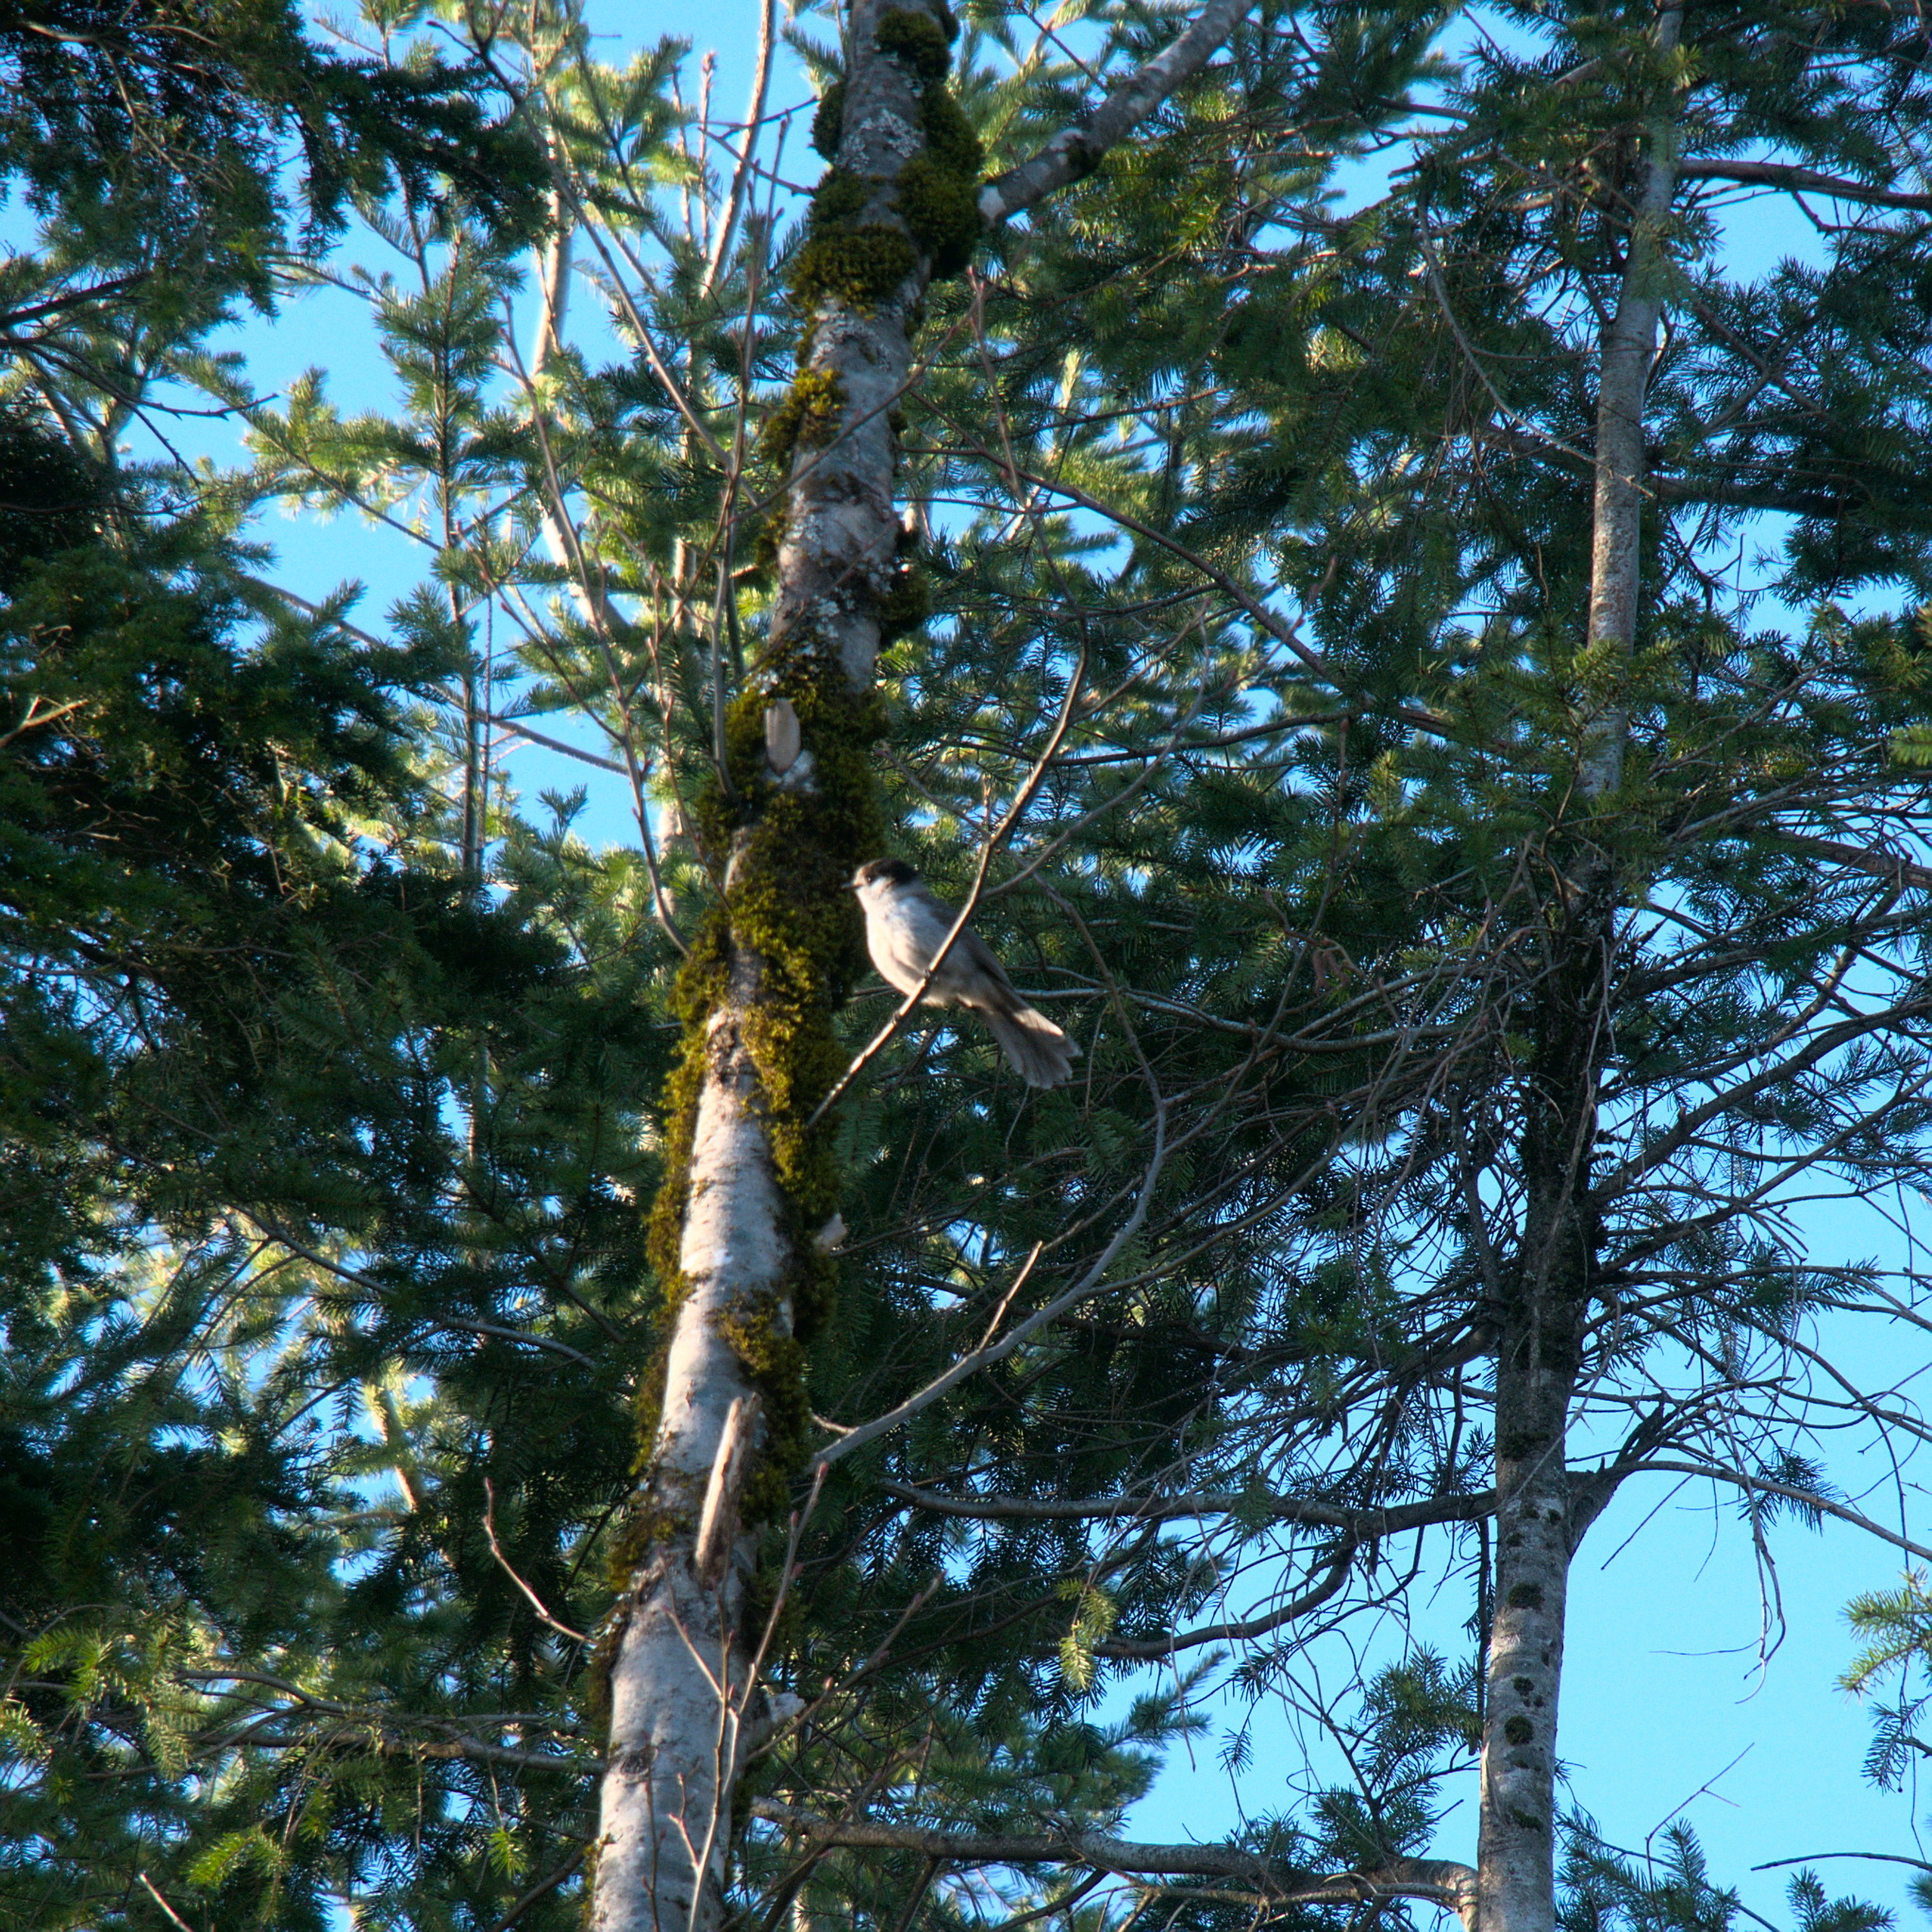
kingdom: Animalia
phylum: Chordata
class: Aves
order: Passeriformes
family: Corvidae
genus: Perisoreus
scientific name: Perisoreus canadensis
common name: Gray jay
